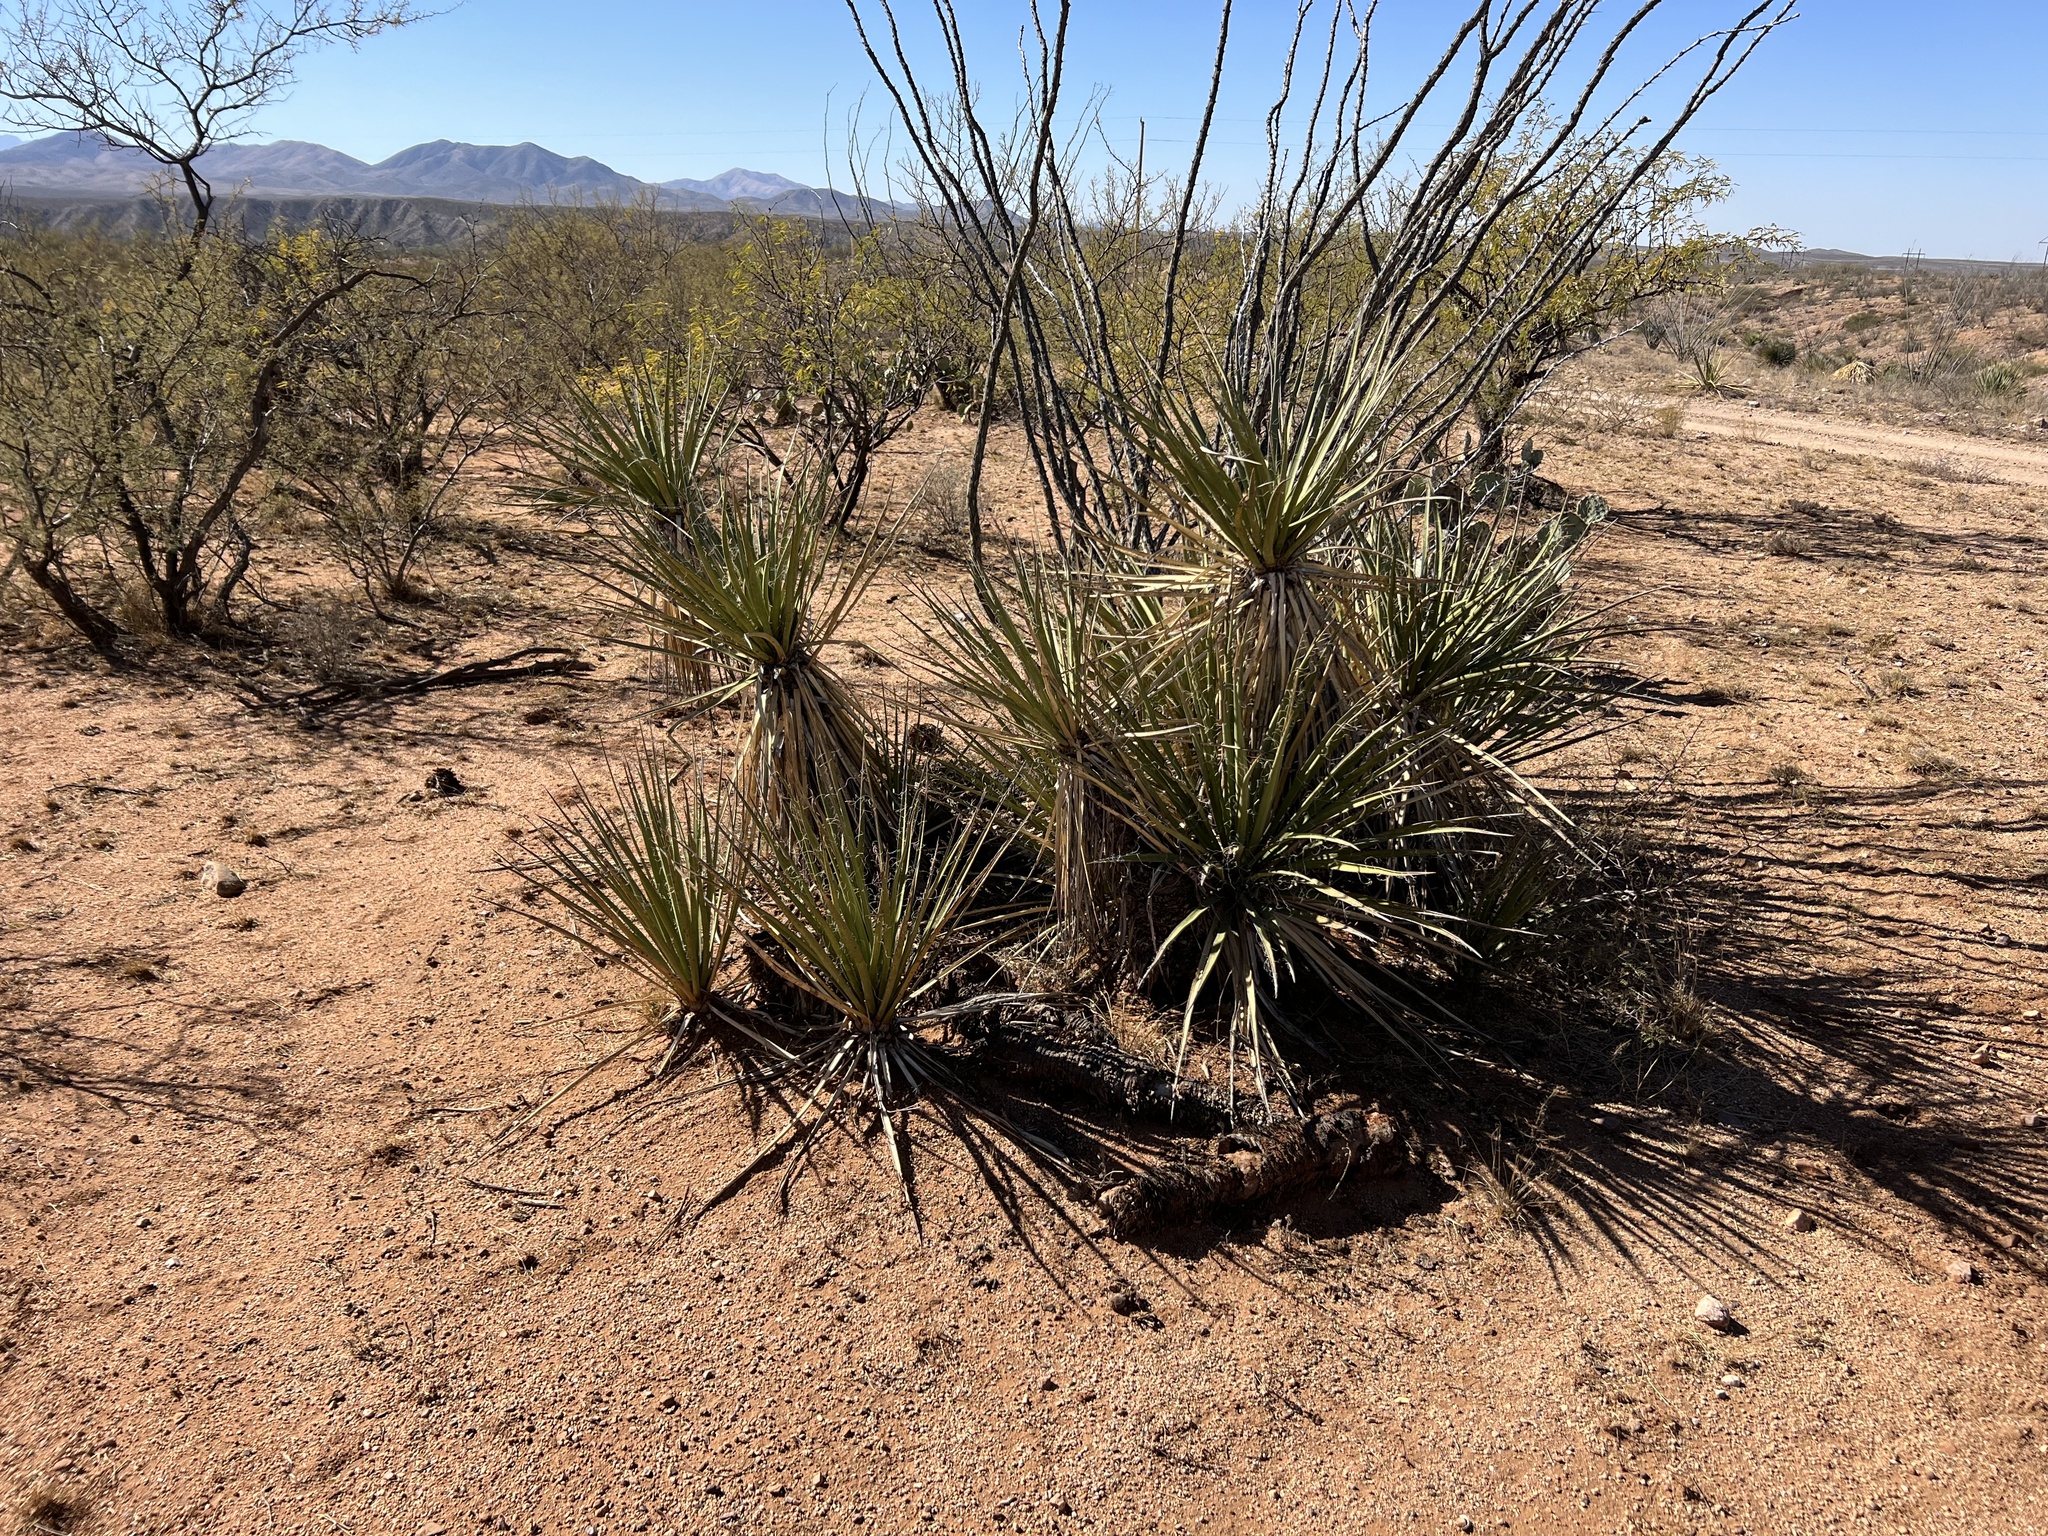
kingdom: Plantae
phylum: Tracheophyta
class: Liliopsida
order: Asparagales
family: Asparagaceae
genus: Yucca
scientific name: Yucca baccata
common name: Banana yucca
